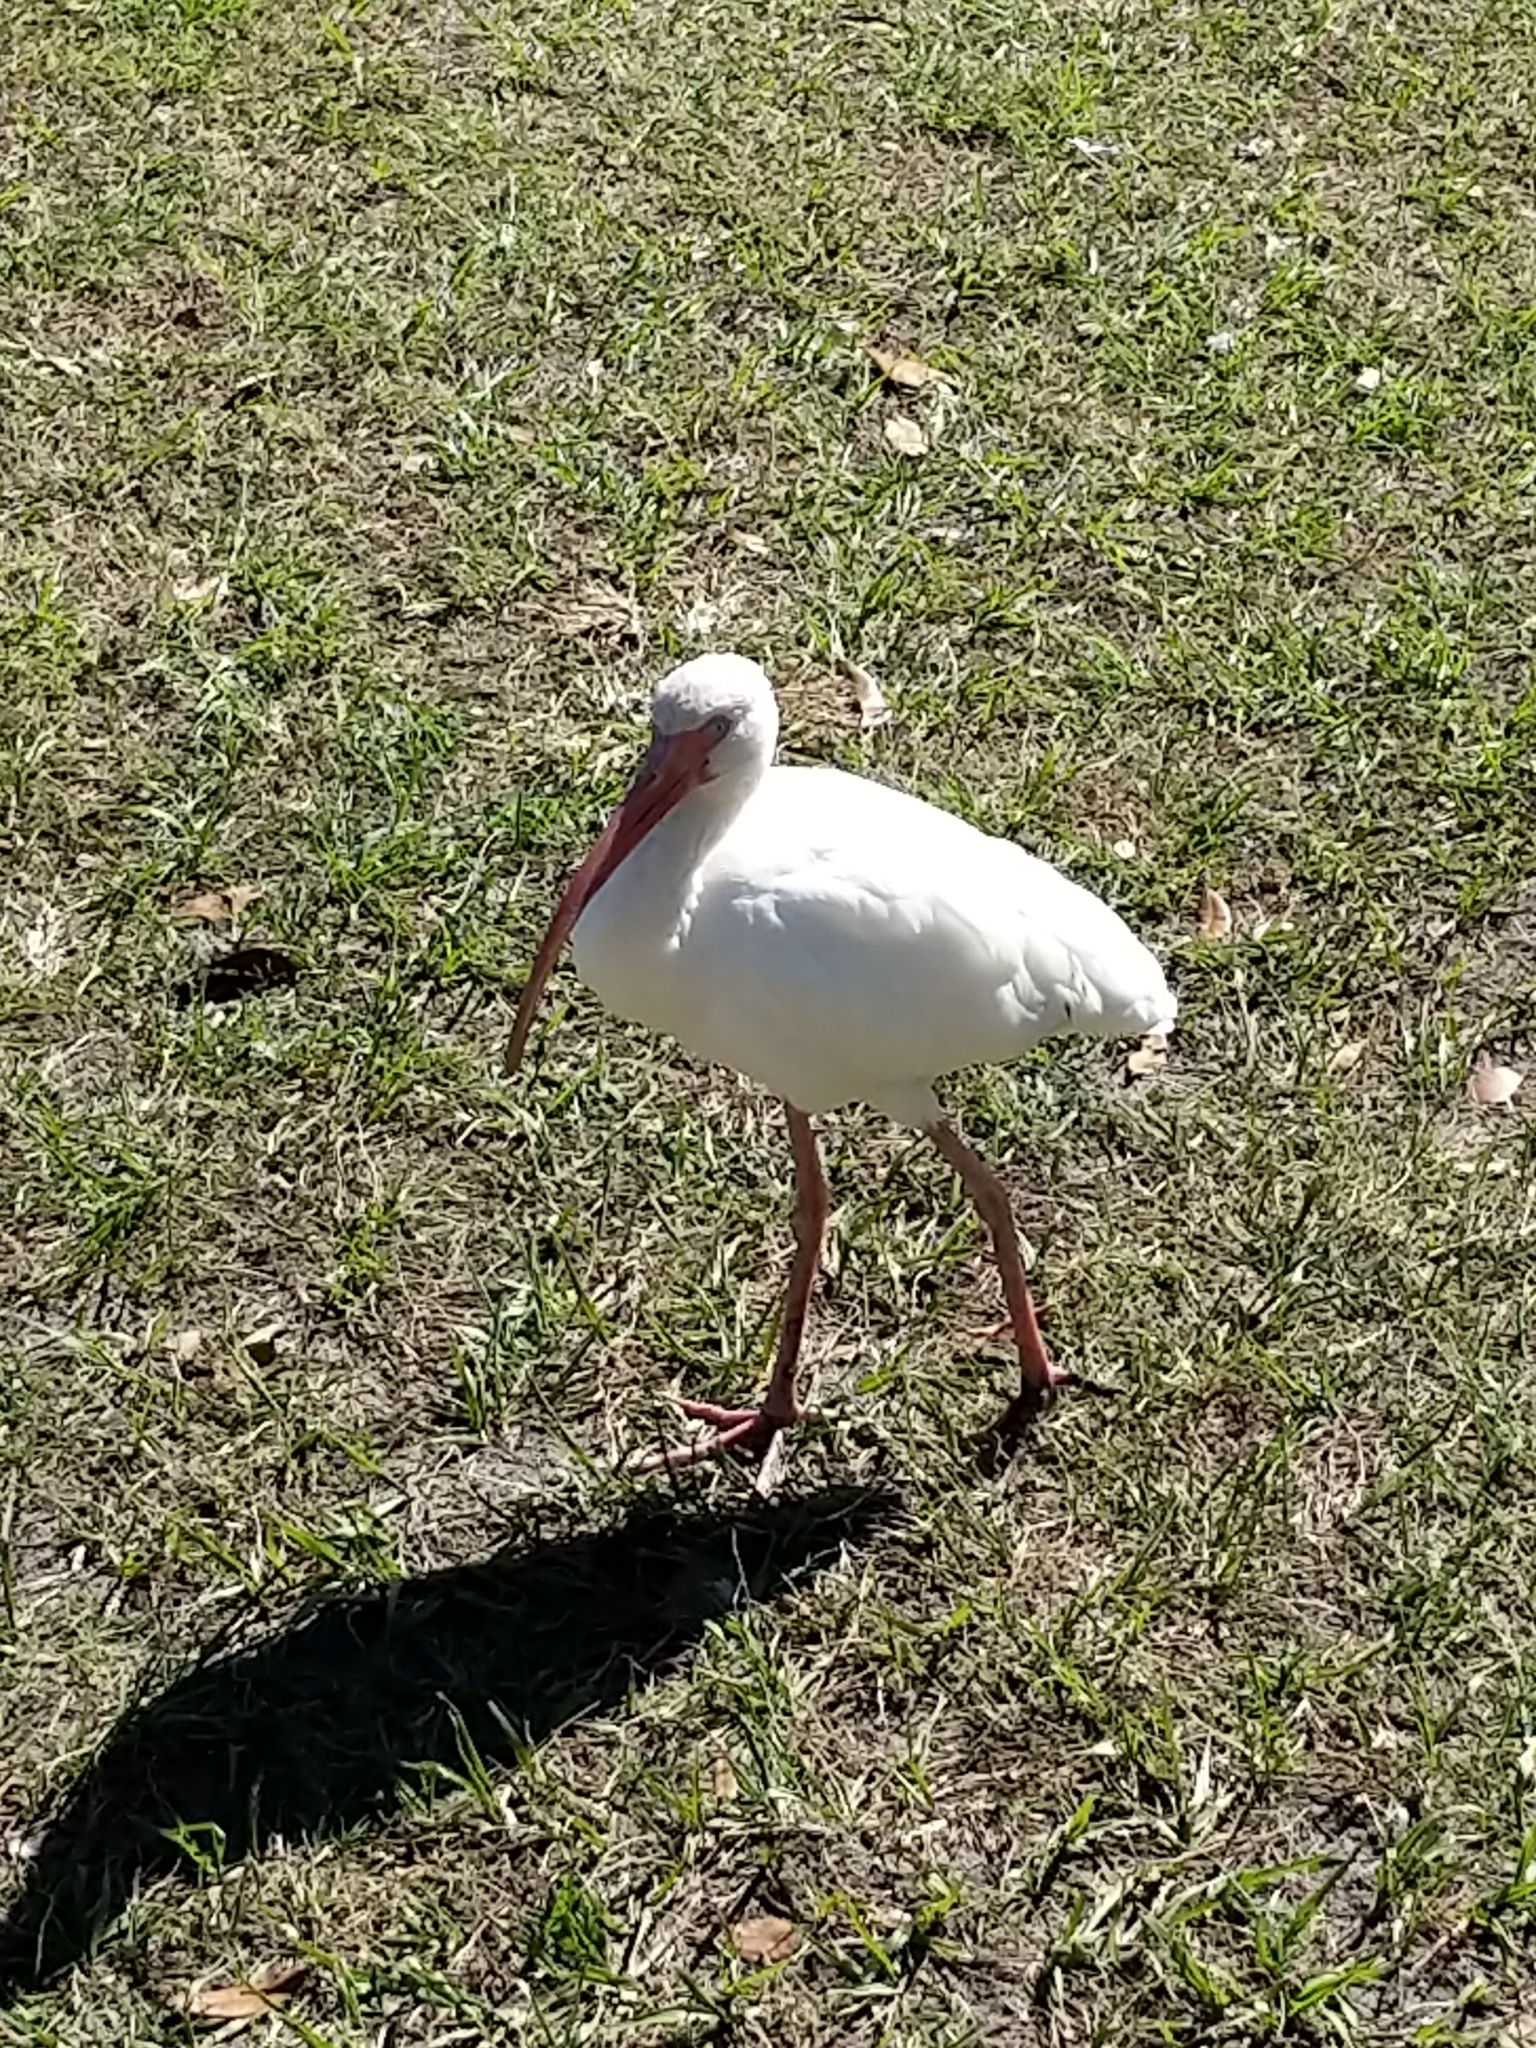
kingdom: Animalia
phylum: Chordata
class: Aves
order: Pelecaniformes
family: Threskiornithidae
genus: Eudocimus
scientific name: Eudocimus albus
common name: White ibis
